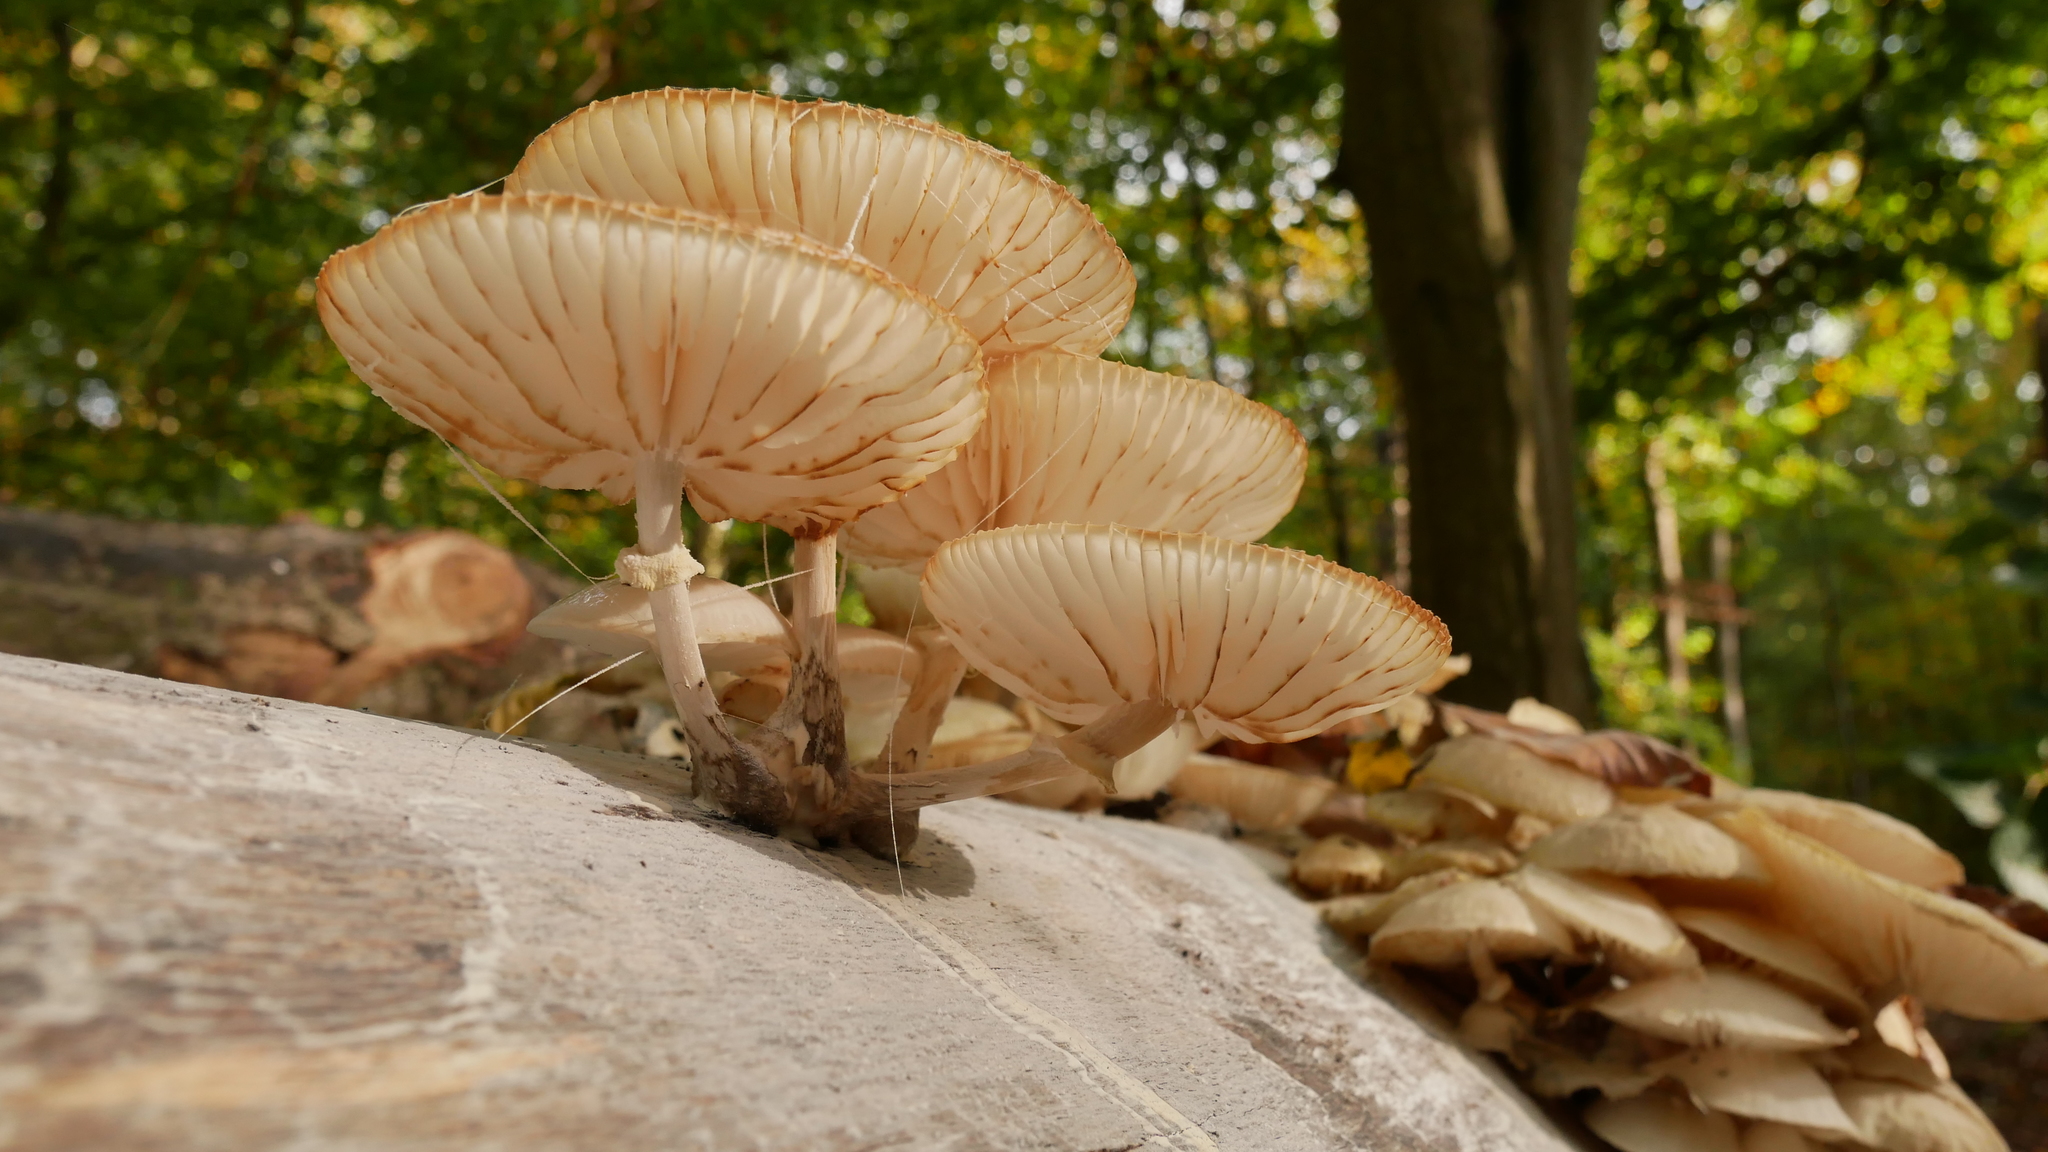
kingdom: Fungi
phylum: Basidiomycota
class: Agaricomycetes
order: Agaricales
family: Physalacriaceae
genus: Mucidula
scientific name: Mucidula mucida
